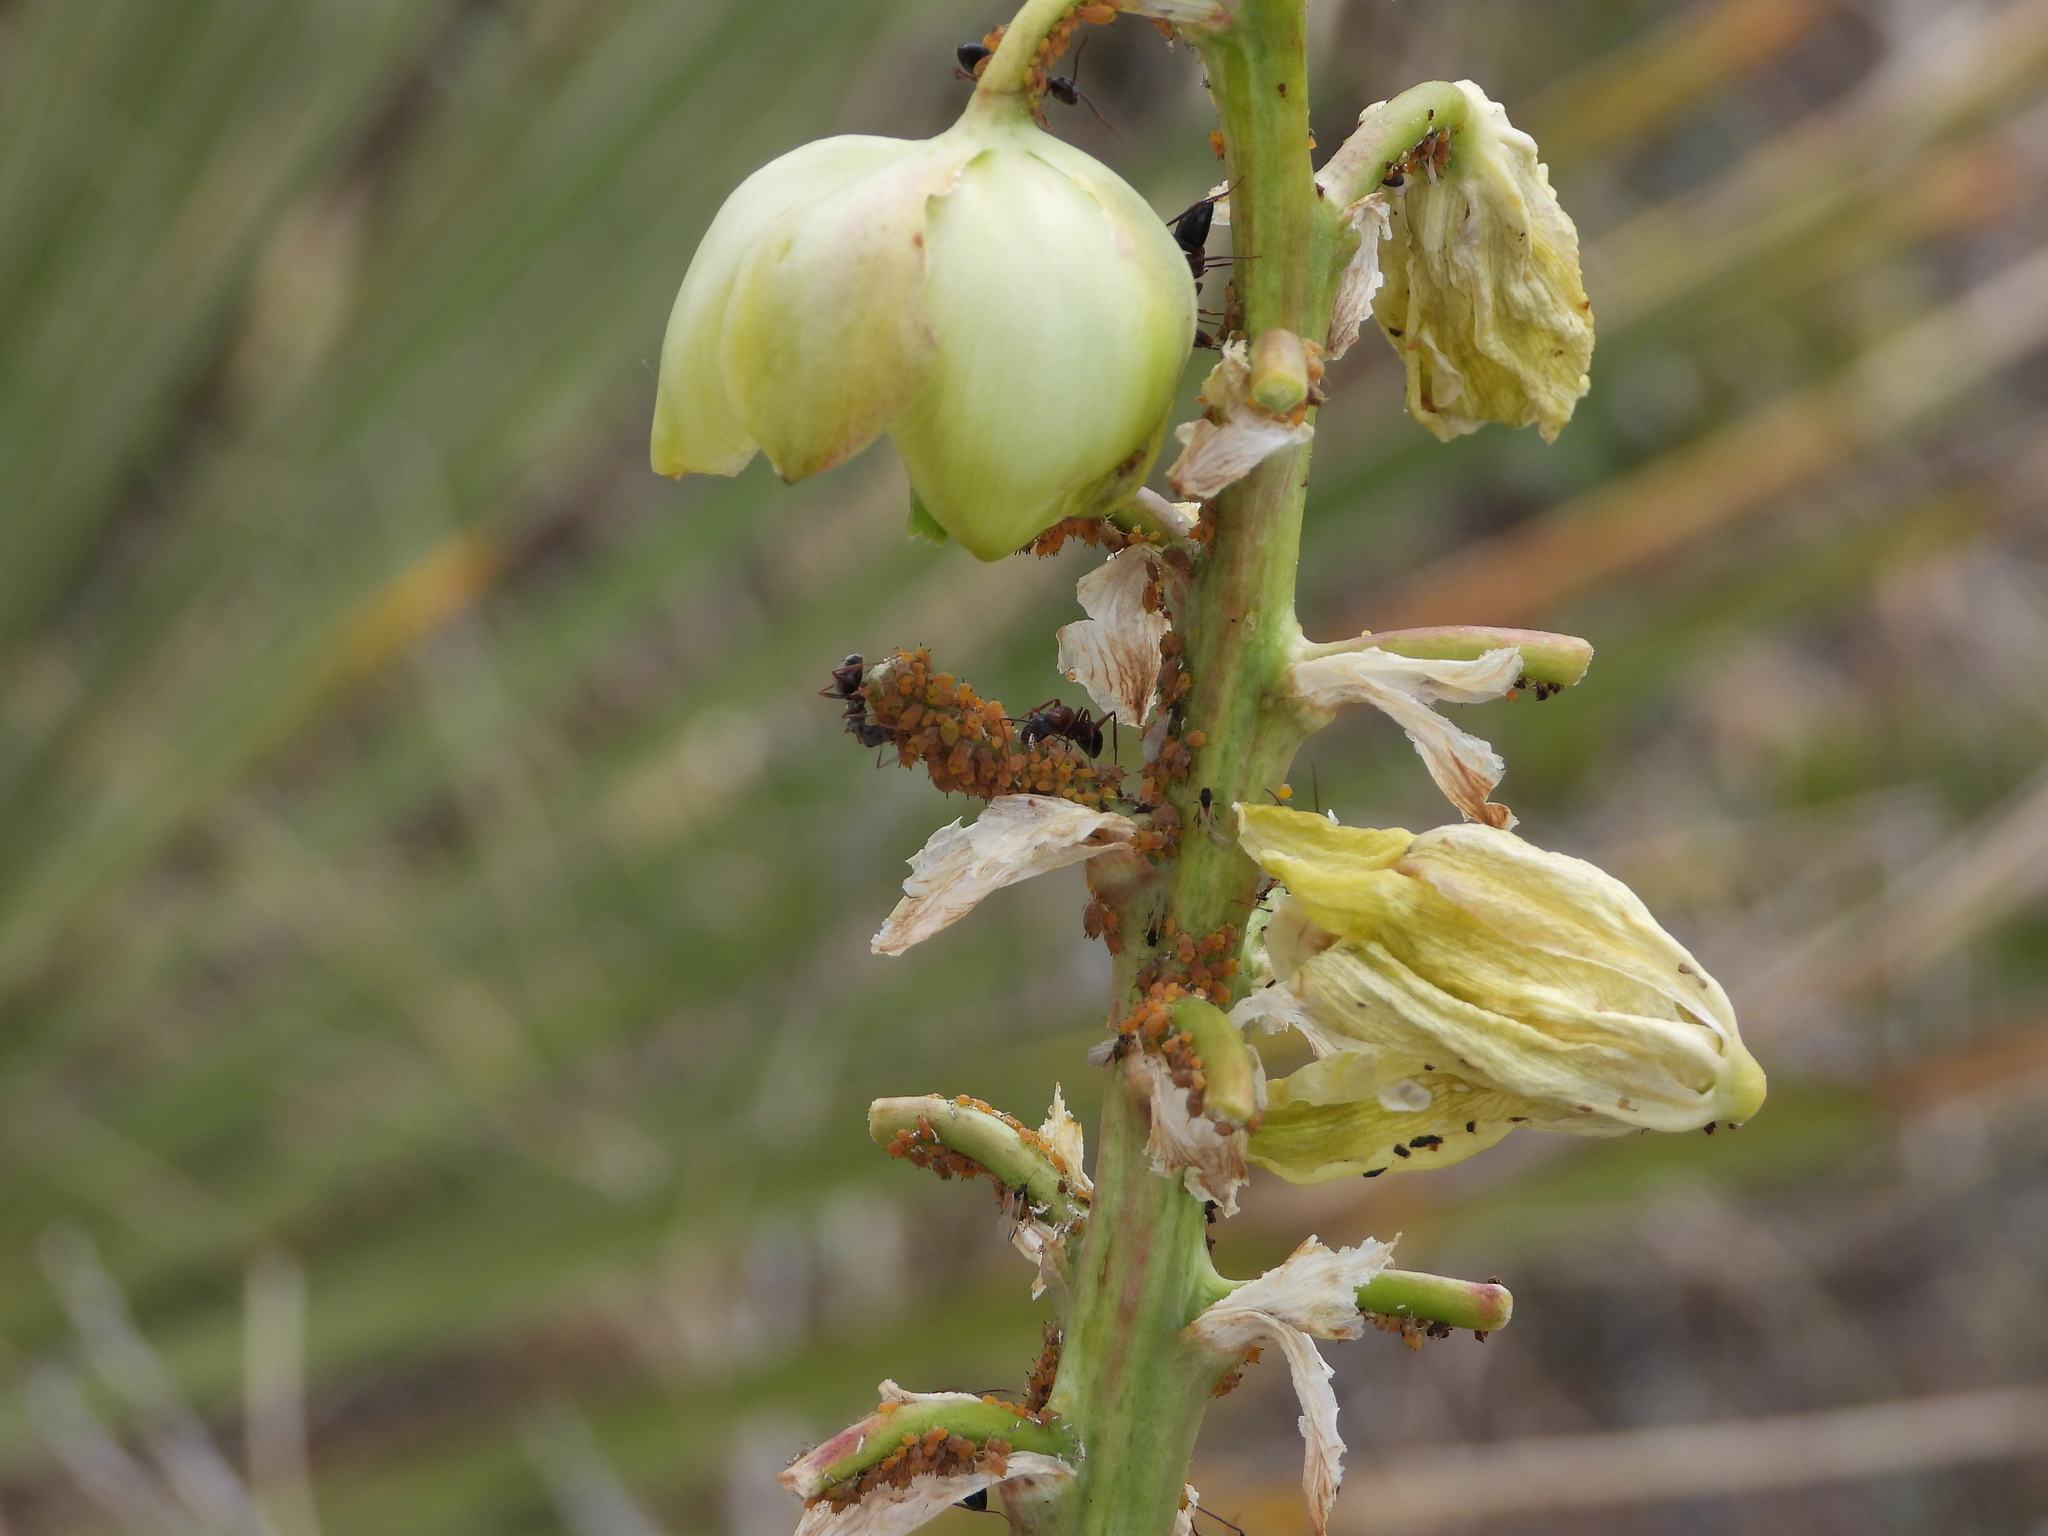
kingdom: Animalia
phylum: Arthropoda
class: Insecta
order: Hymenoptera
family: Formicidae
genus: Camponotus
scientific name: Camponotus vicinus
